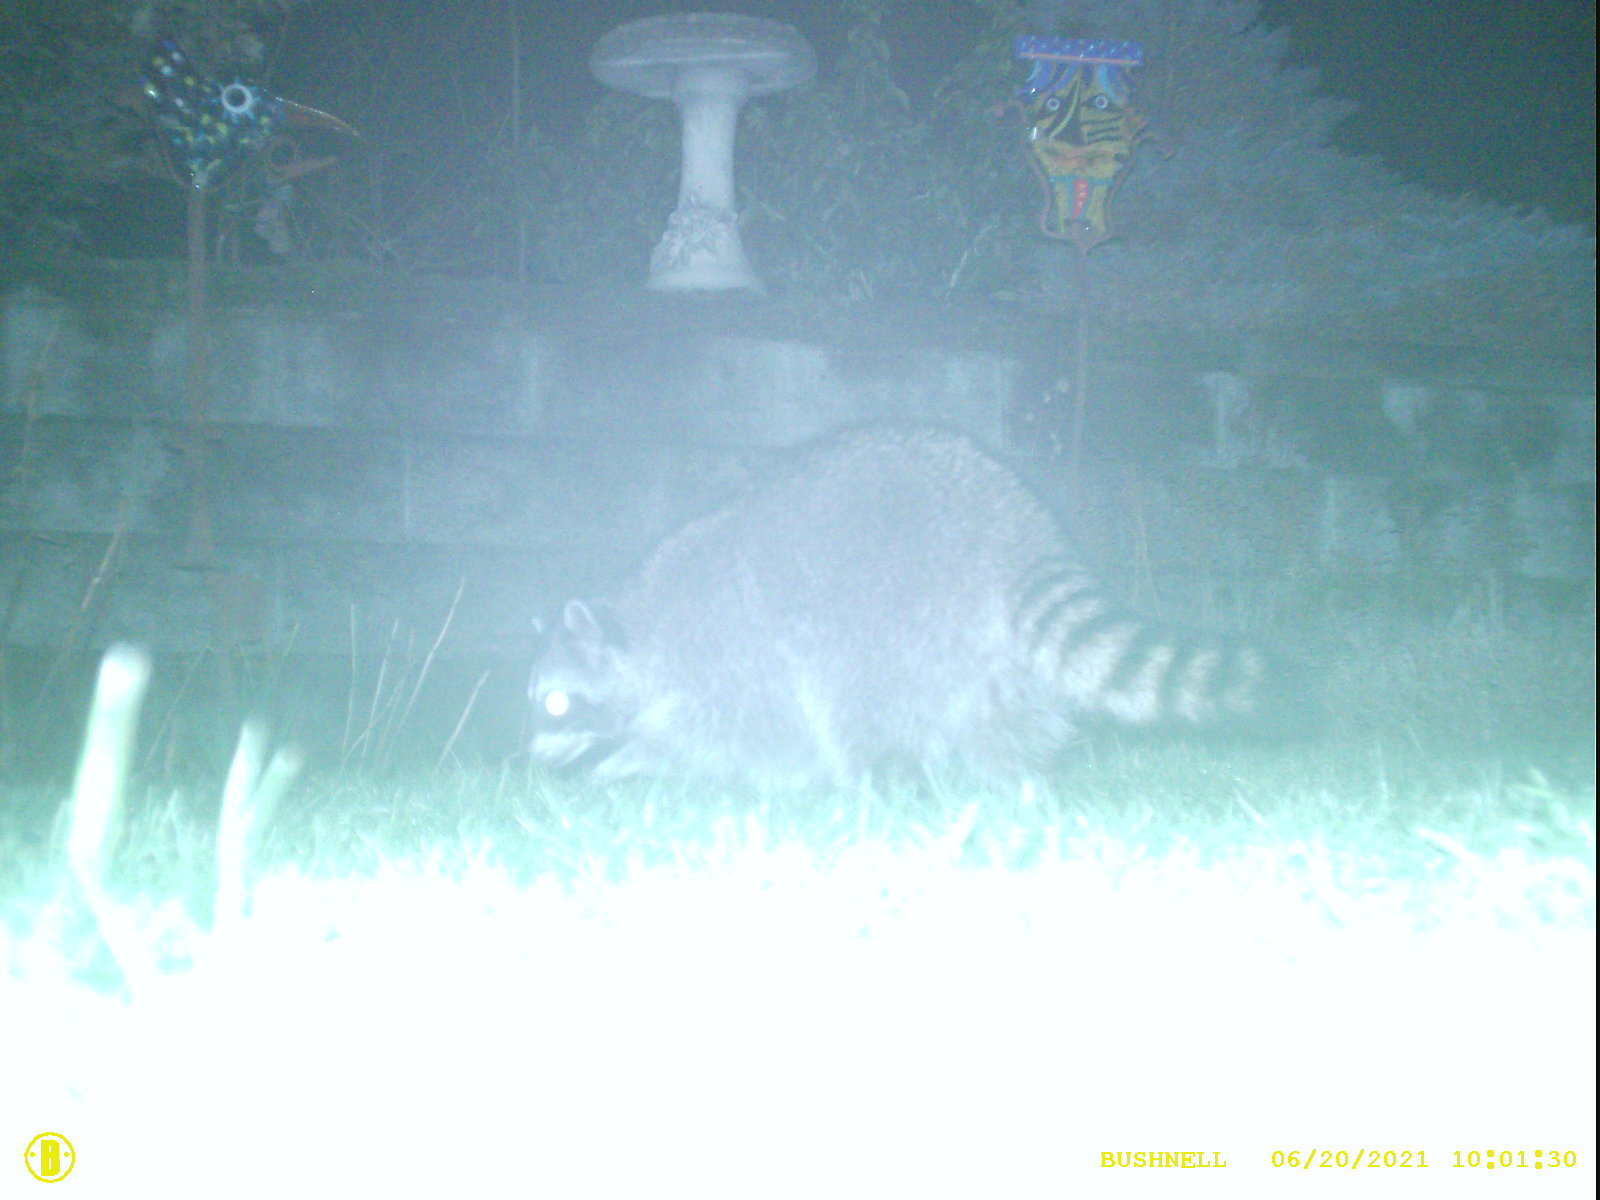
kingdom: Animalia
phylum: Chordata
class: Mammalia
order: Carnivora
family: Procyonidae
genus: Procyon
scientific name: Procyon lotor
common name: Raccoon
